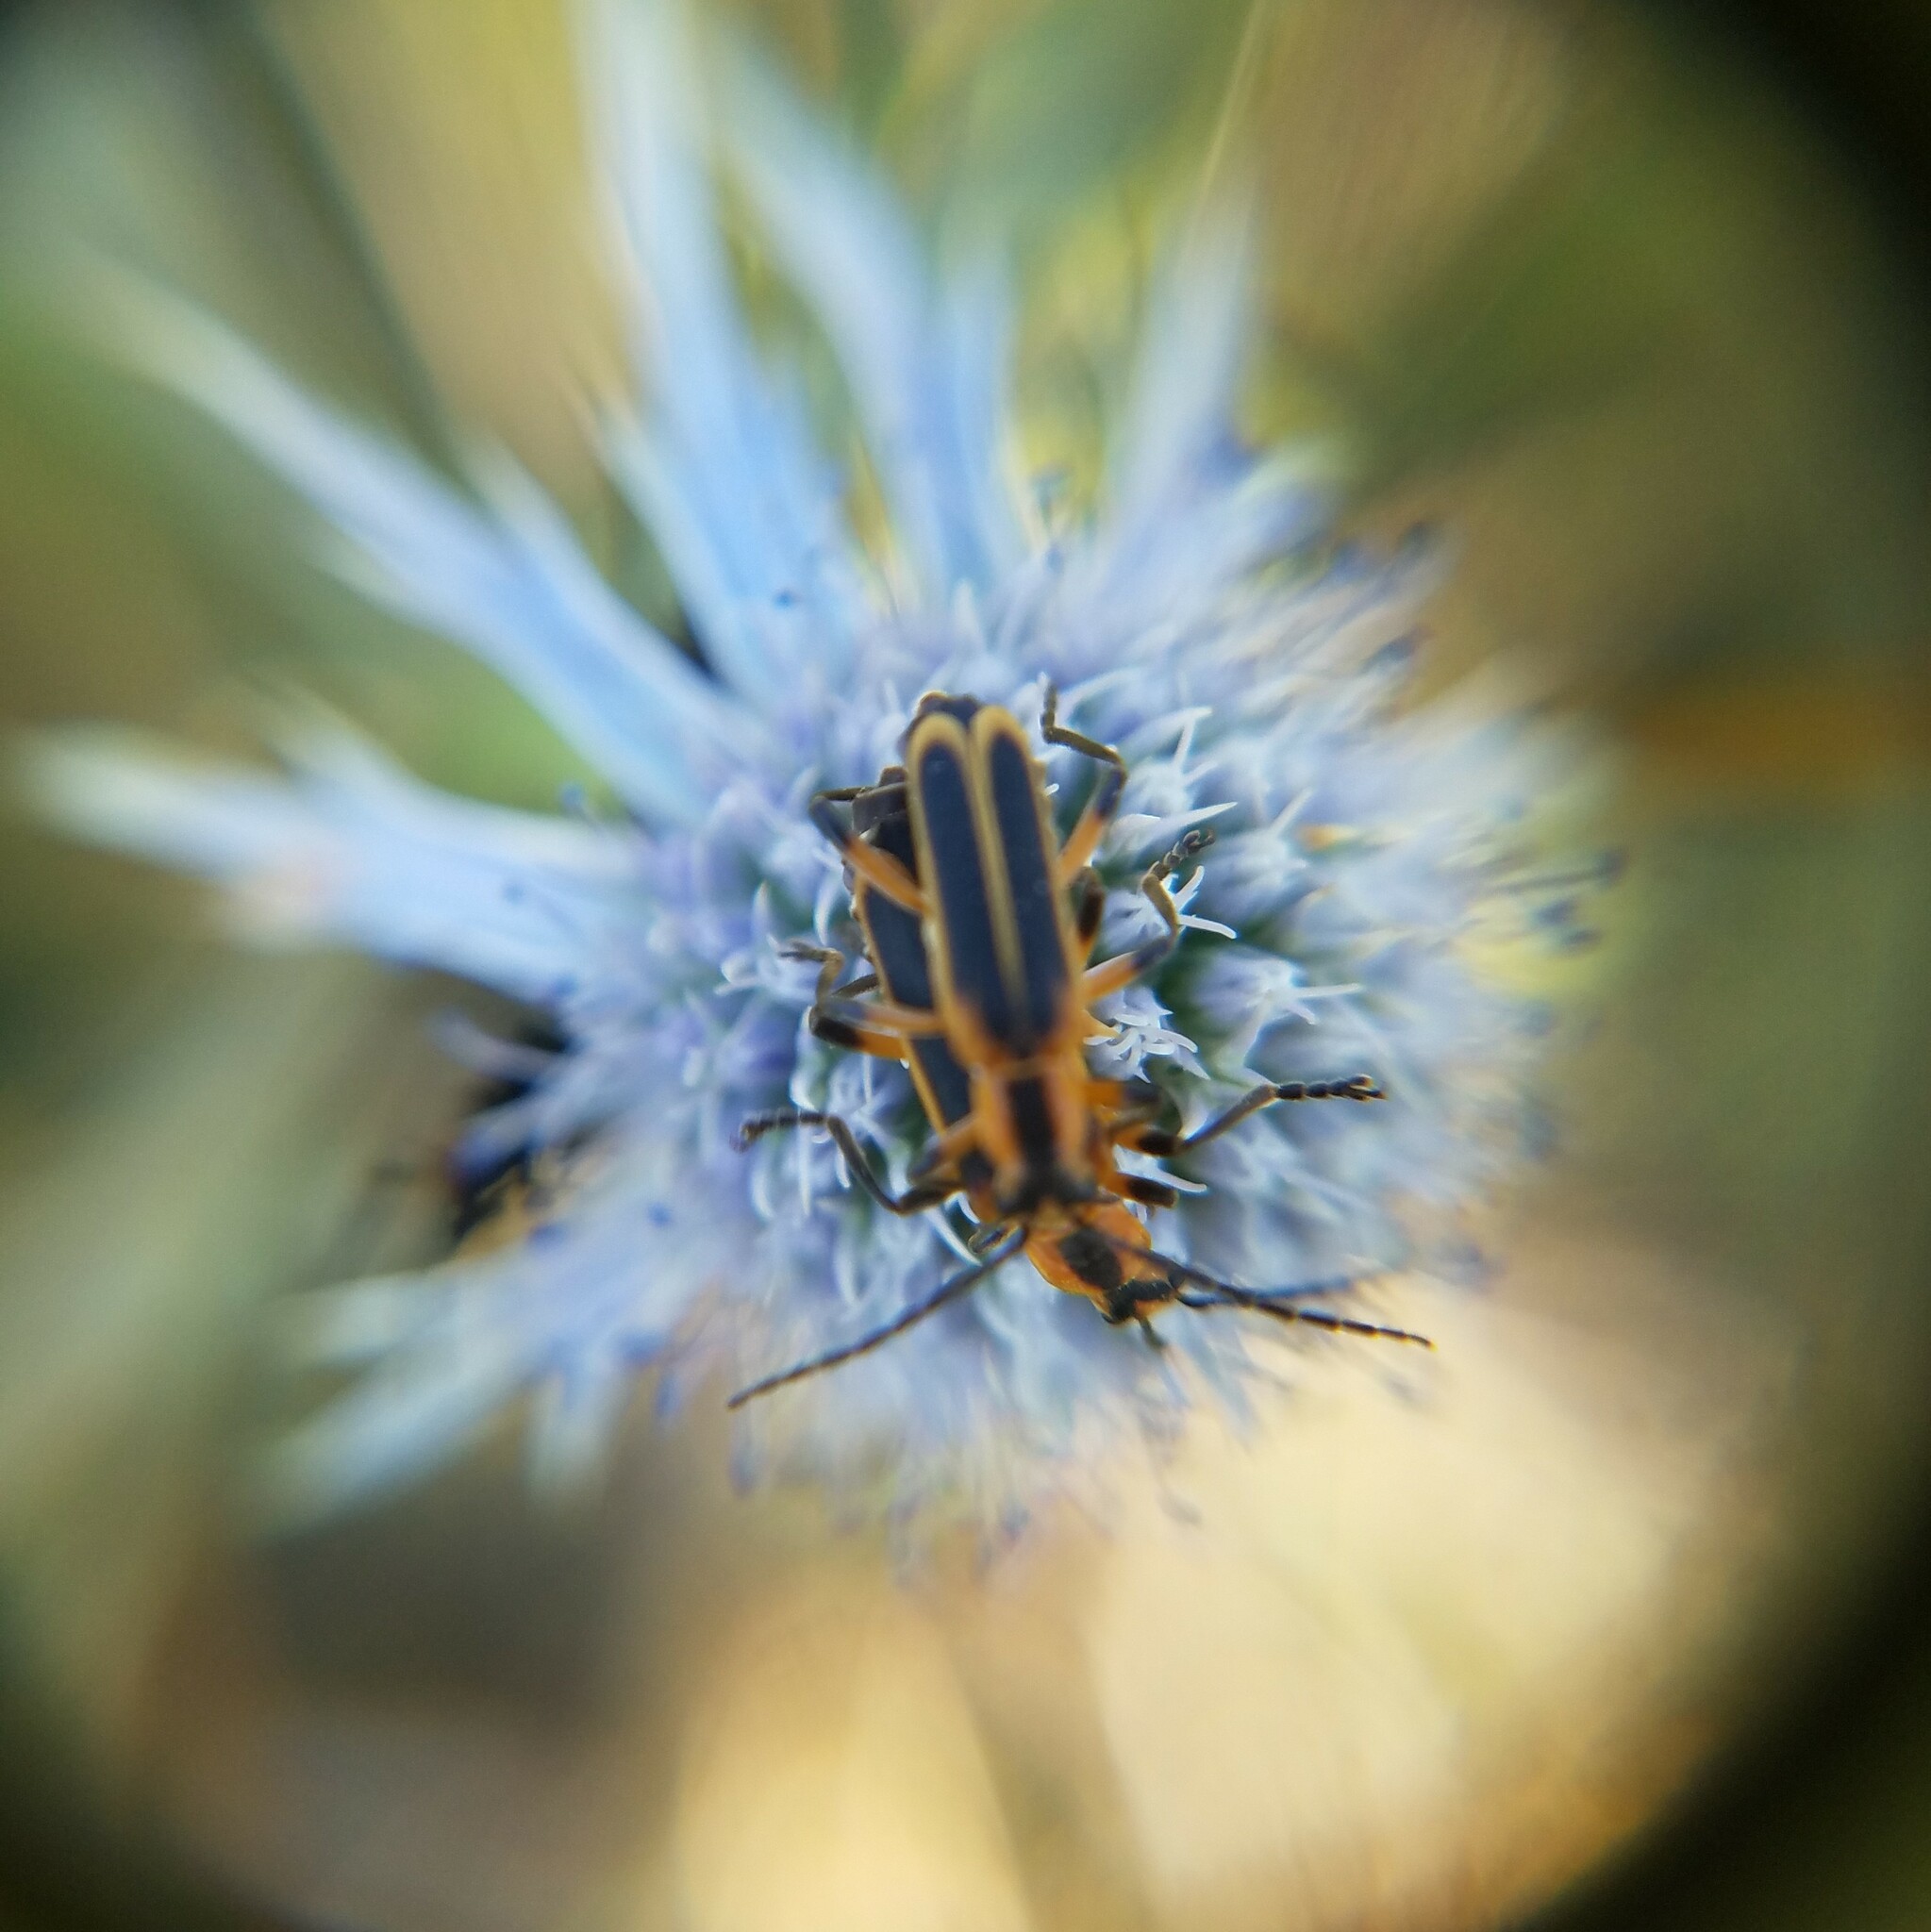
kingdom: Animalia
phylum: Arthropoda
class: Insecta
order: Coleoptera
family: Cantharidae
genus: Chauliognathus
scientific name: Chauliognathus marginatus
